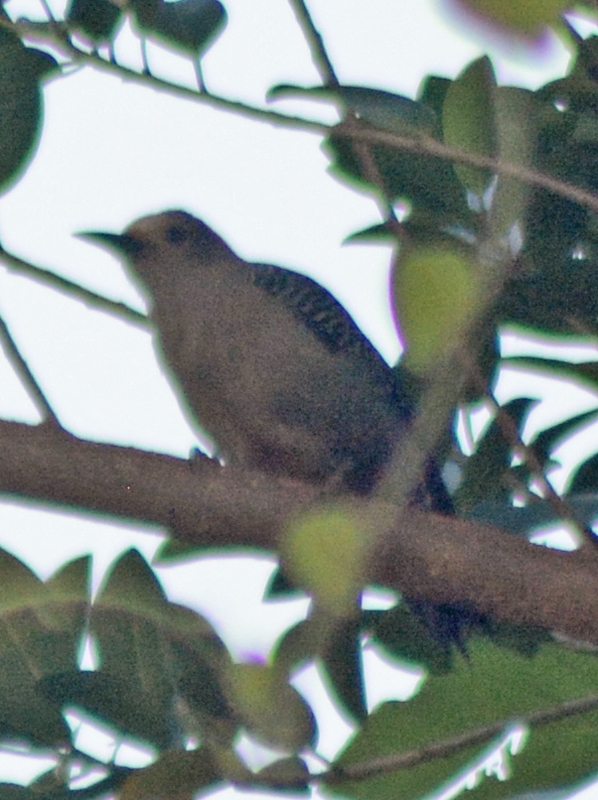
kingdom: Animalia
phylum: Chordata
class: Aves
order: Piciformes
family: Picidae
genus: Melanerpes
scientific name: Melanerpes aurifrons
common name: Golden-fronted woodpecker
